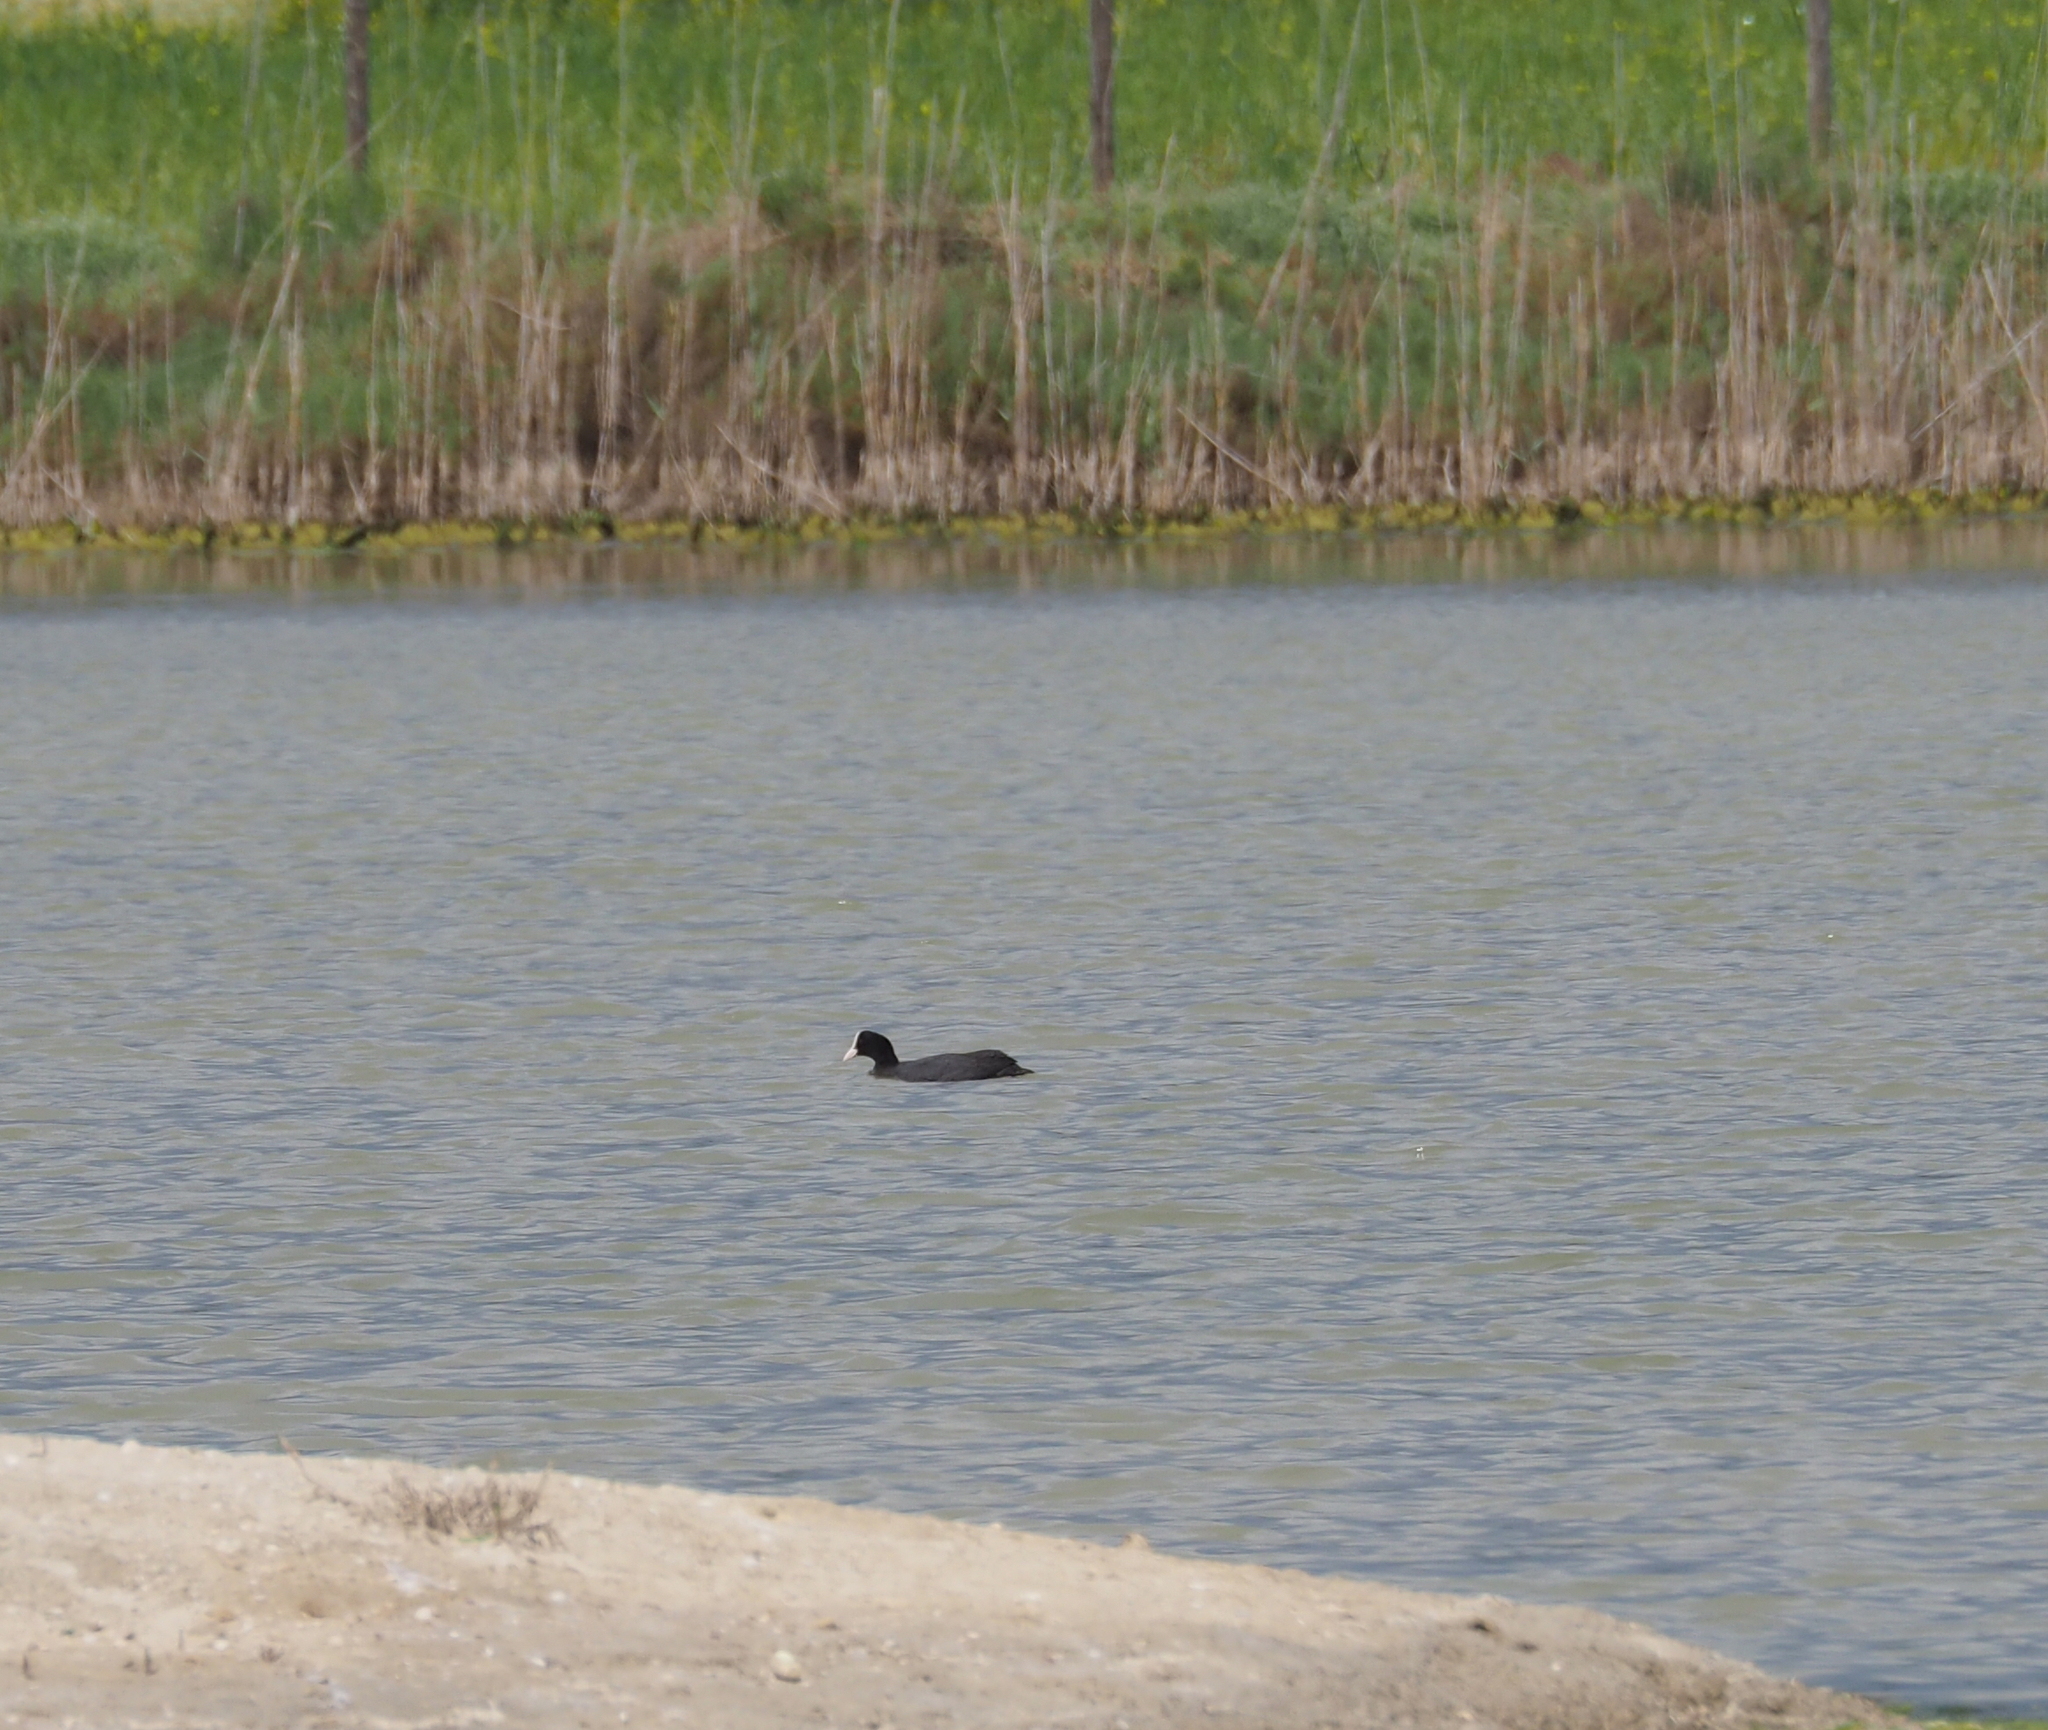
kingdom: Animalia
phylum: Chordata
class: Aves
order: Gruiformes
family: Rallidae
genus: Fulica
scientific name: Fulica atra
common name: Eurasian coot
